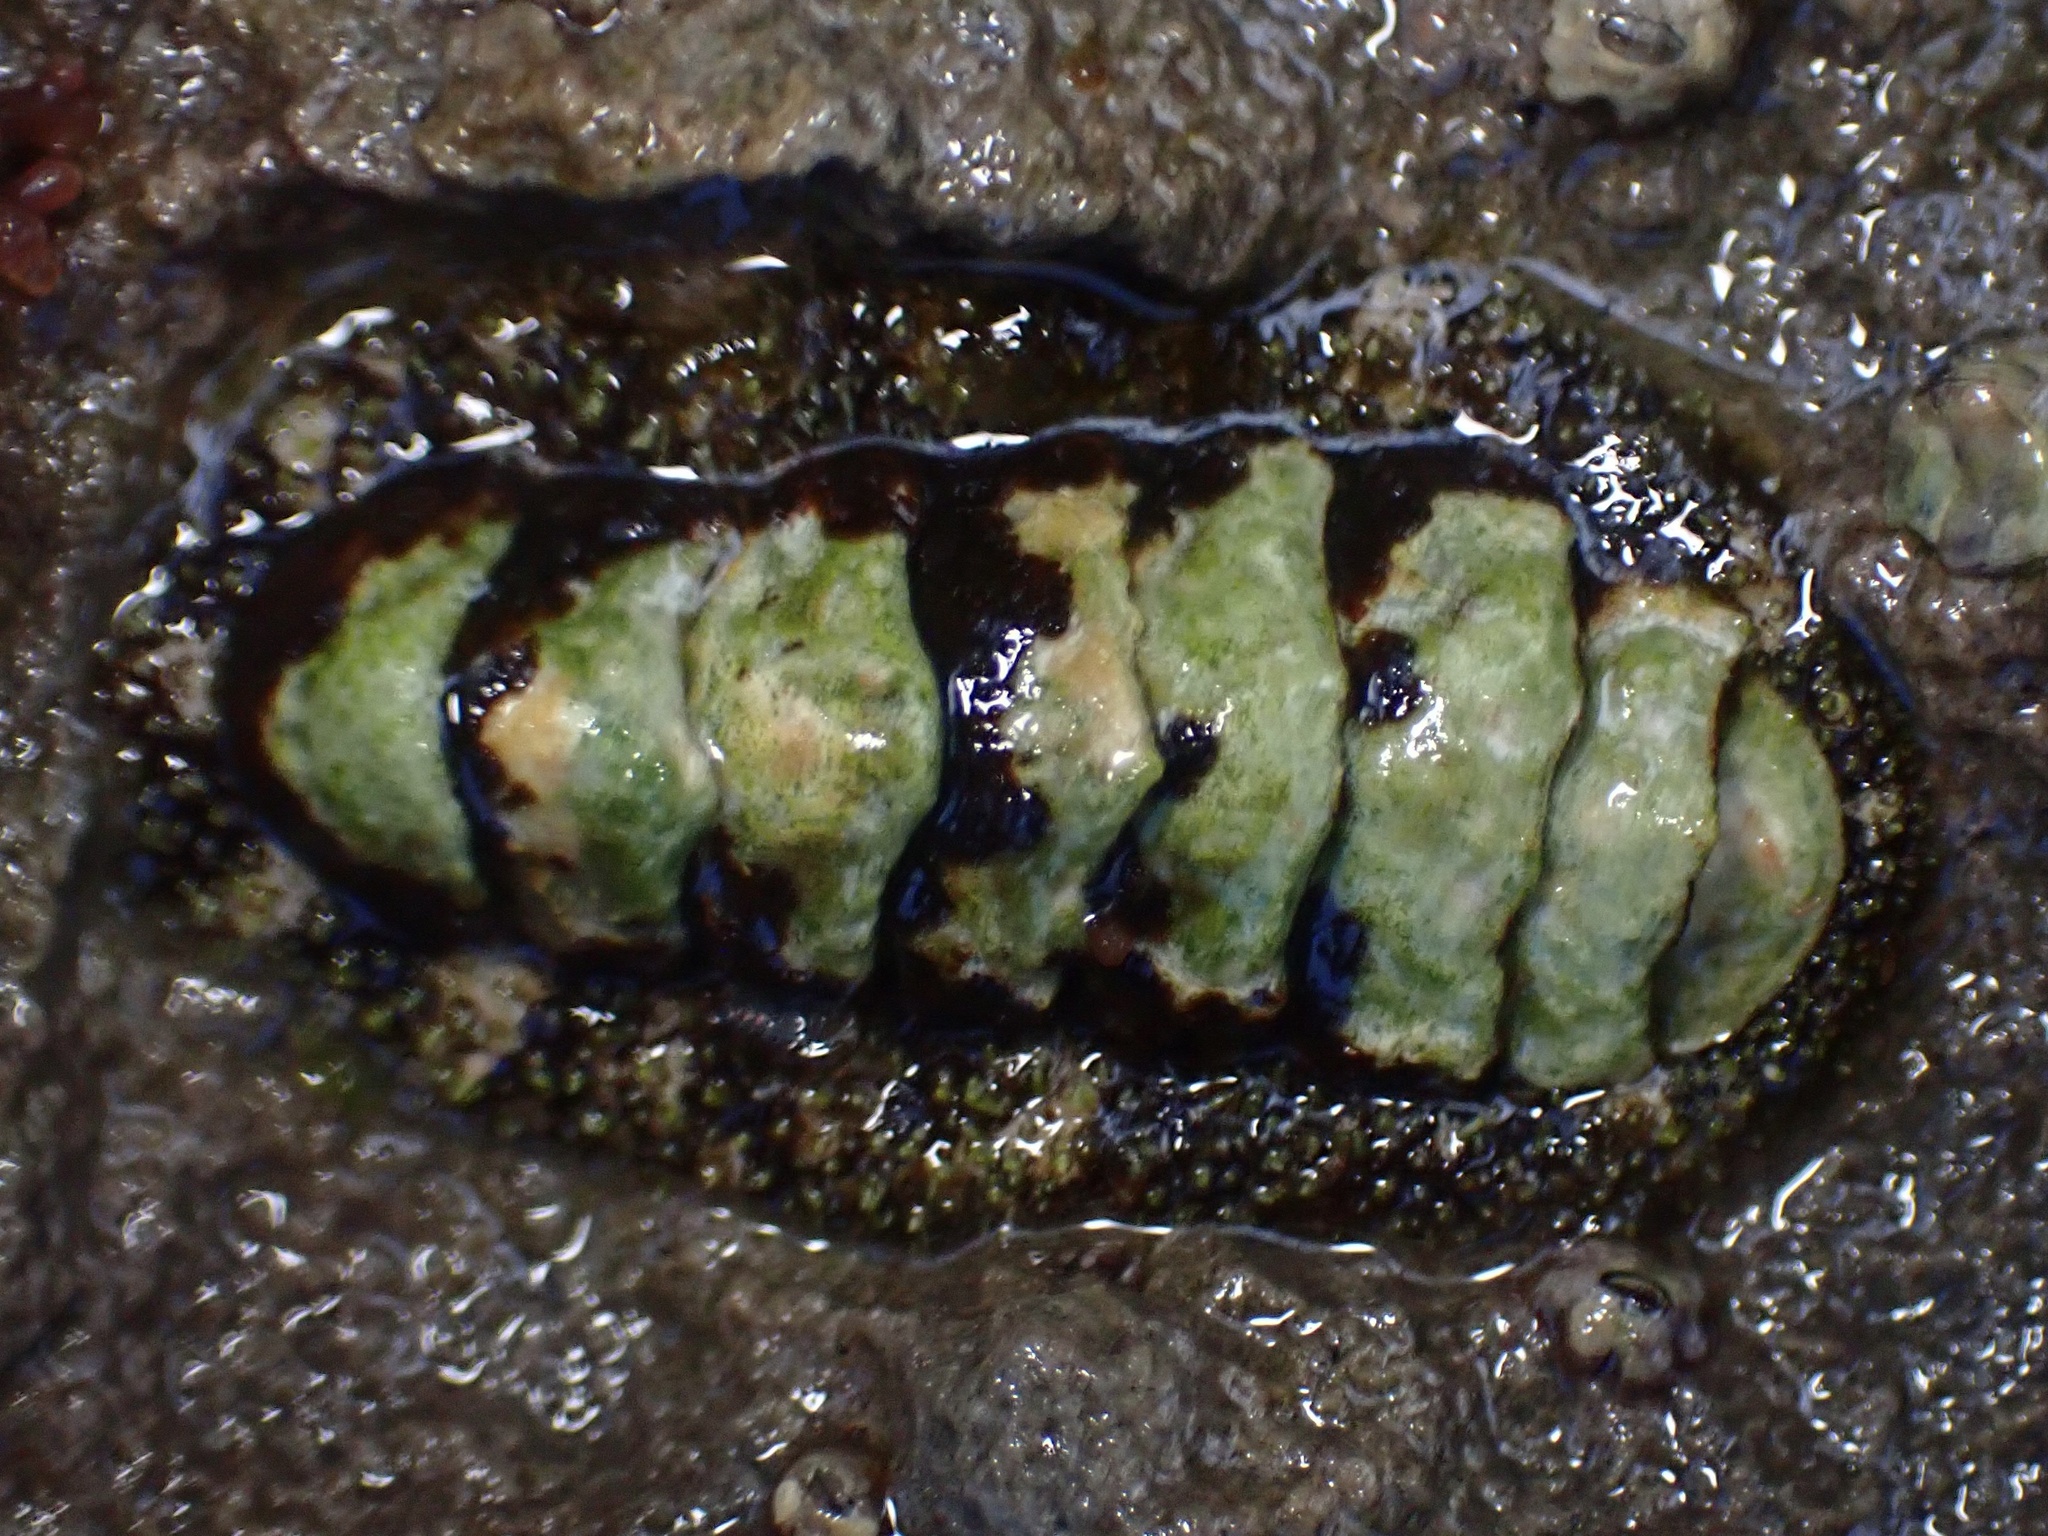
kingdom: Animalia
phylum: Mollusca
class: Polyplacophora
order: Chitonida
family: Tonicellidae
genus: Nuttallina
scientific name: Nuttallina californica
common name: California nuttall chiton
